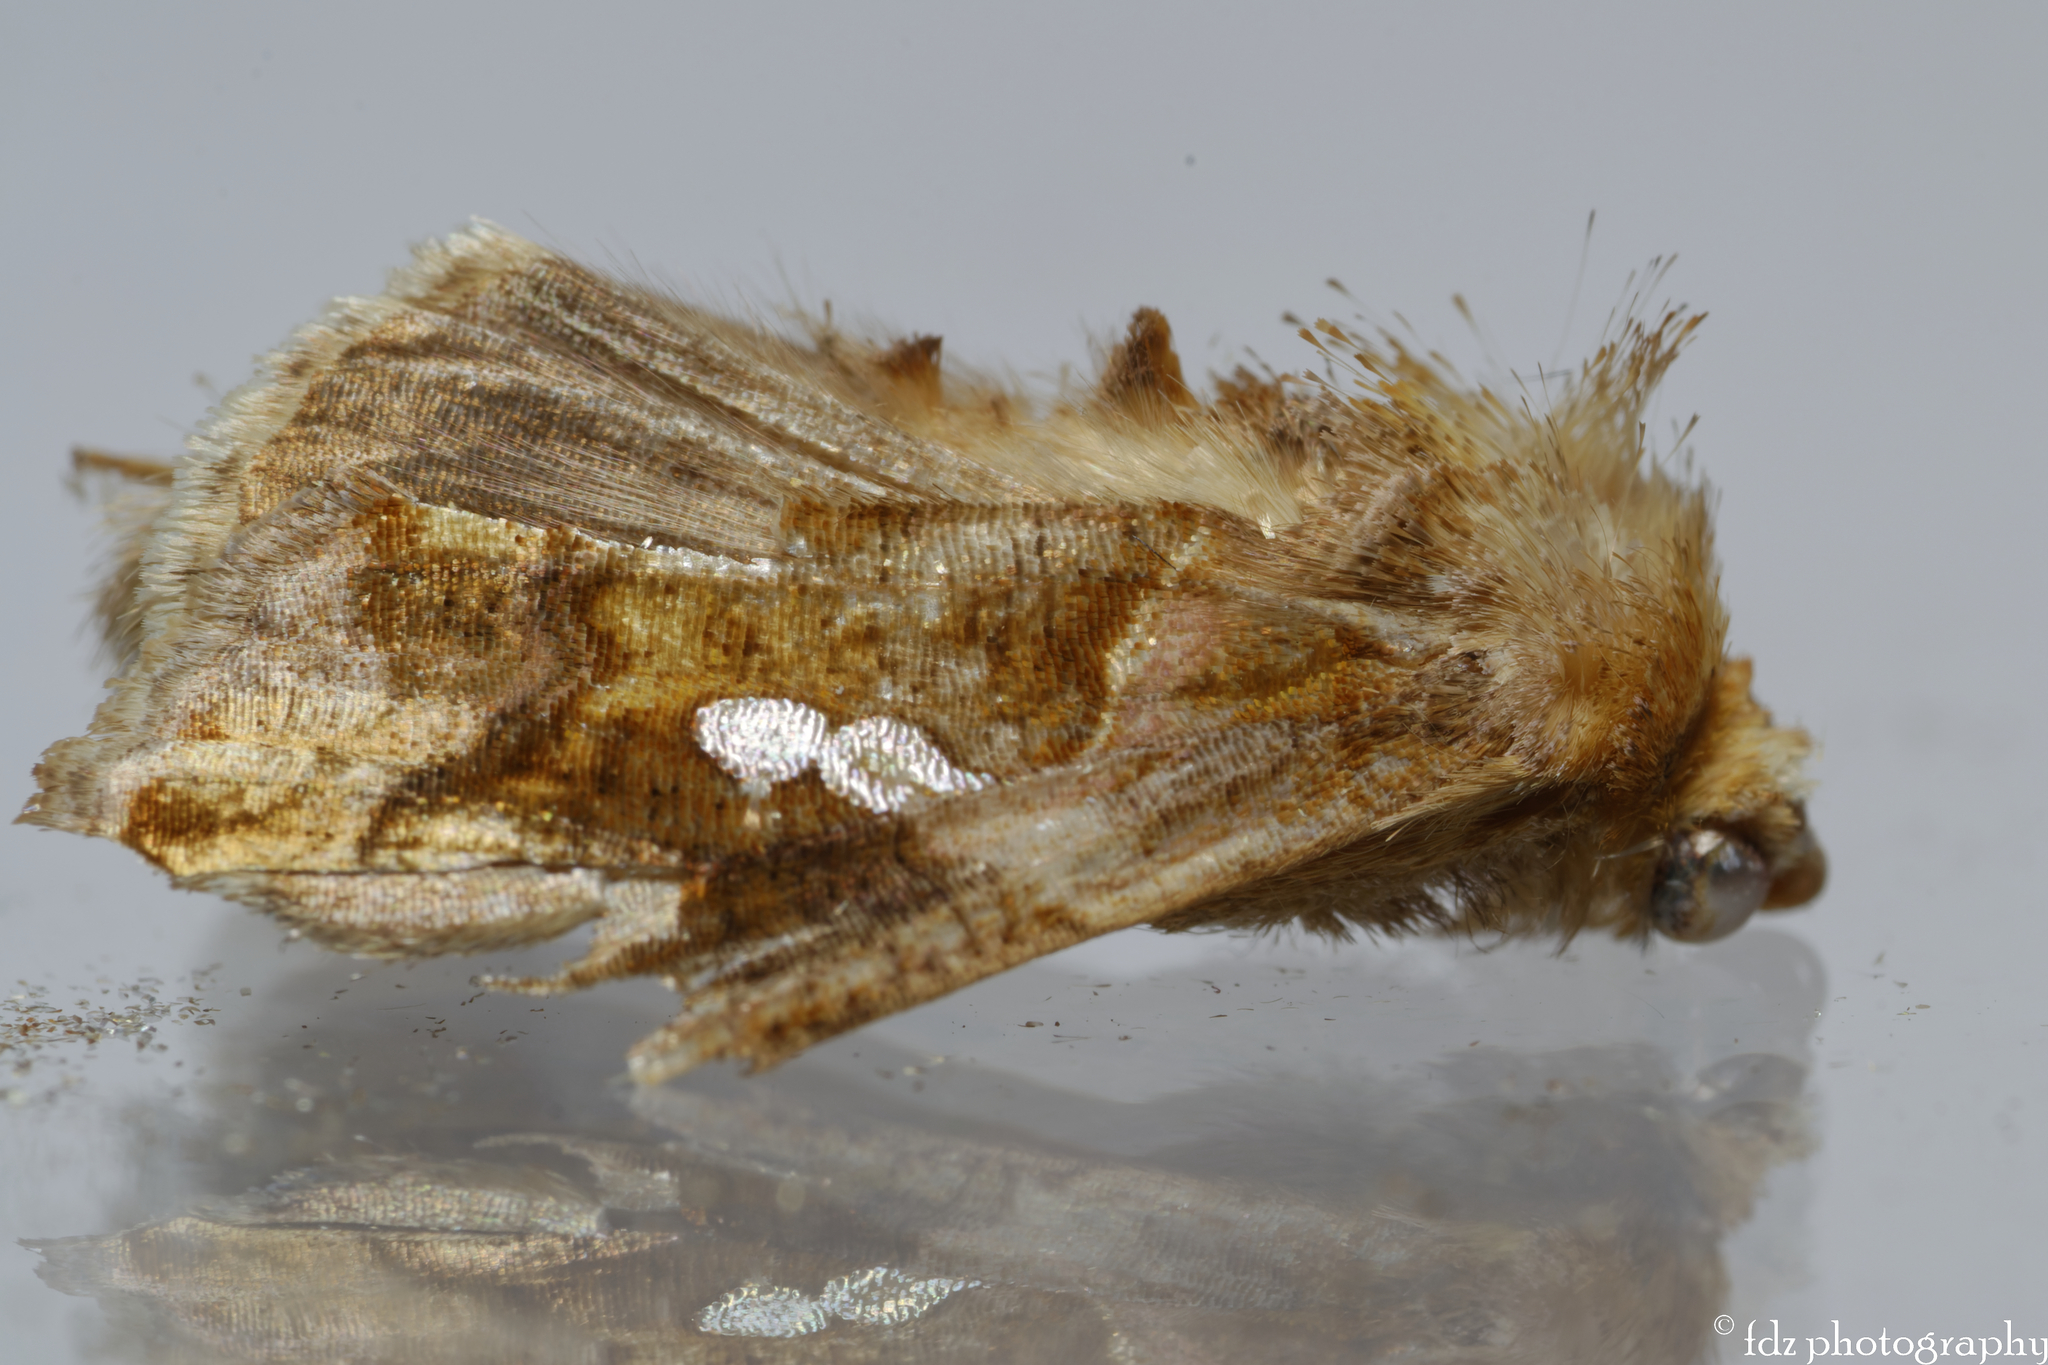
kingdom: Animalia
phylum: Arthropoda
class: Insecta
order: Lepidoptera
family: Noctuidae
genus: Chrysodeixis
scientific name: Chrysodeixis chalcites
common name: Golden twin-spot
